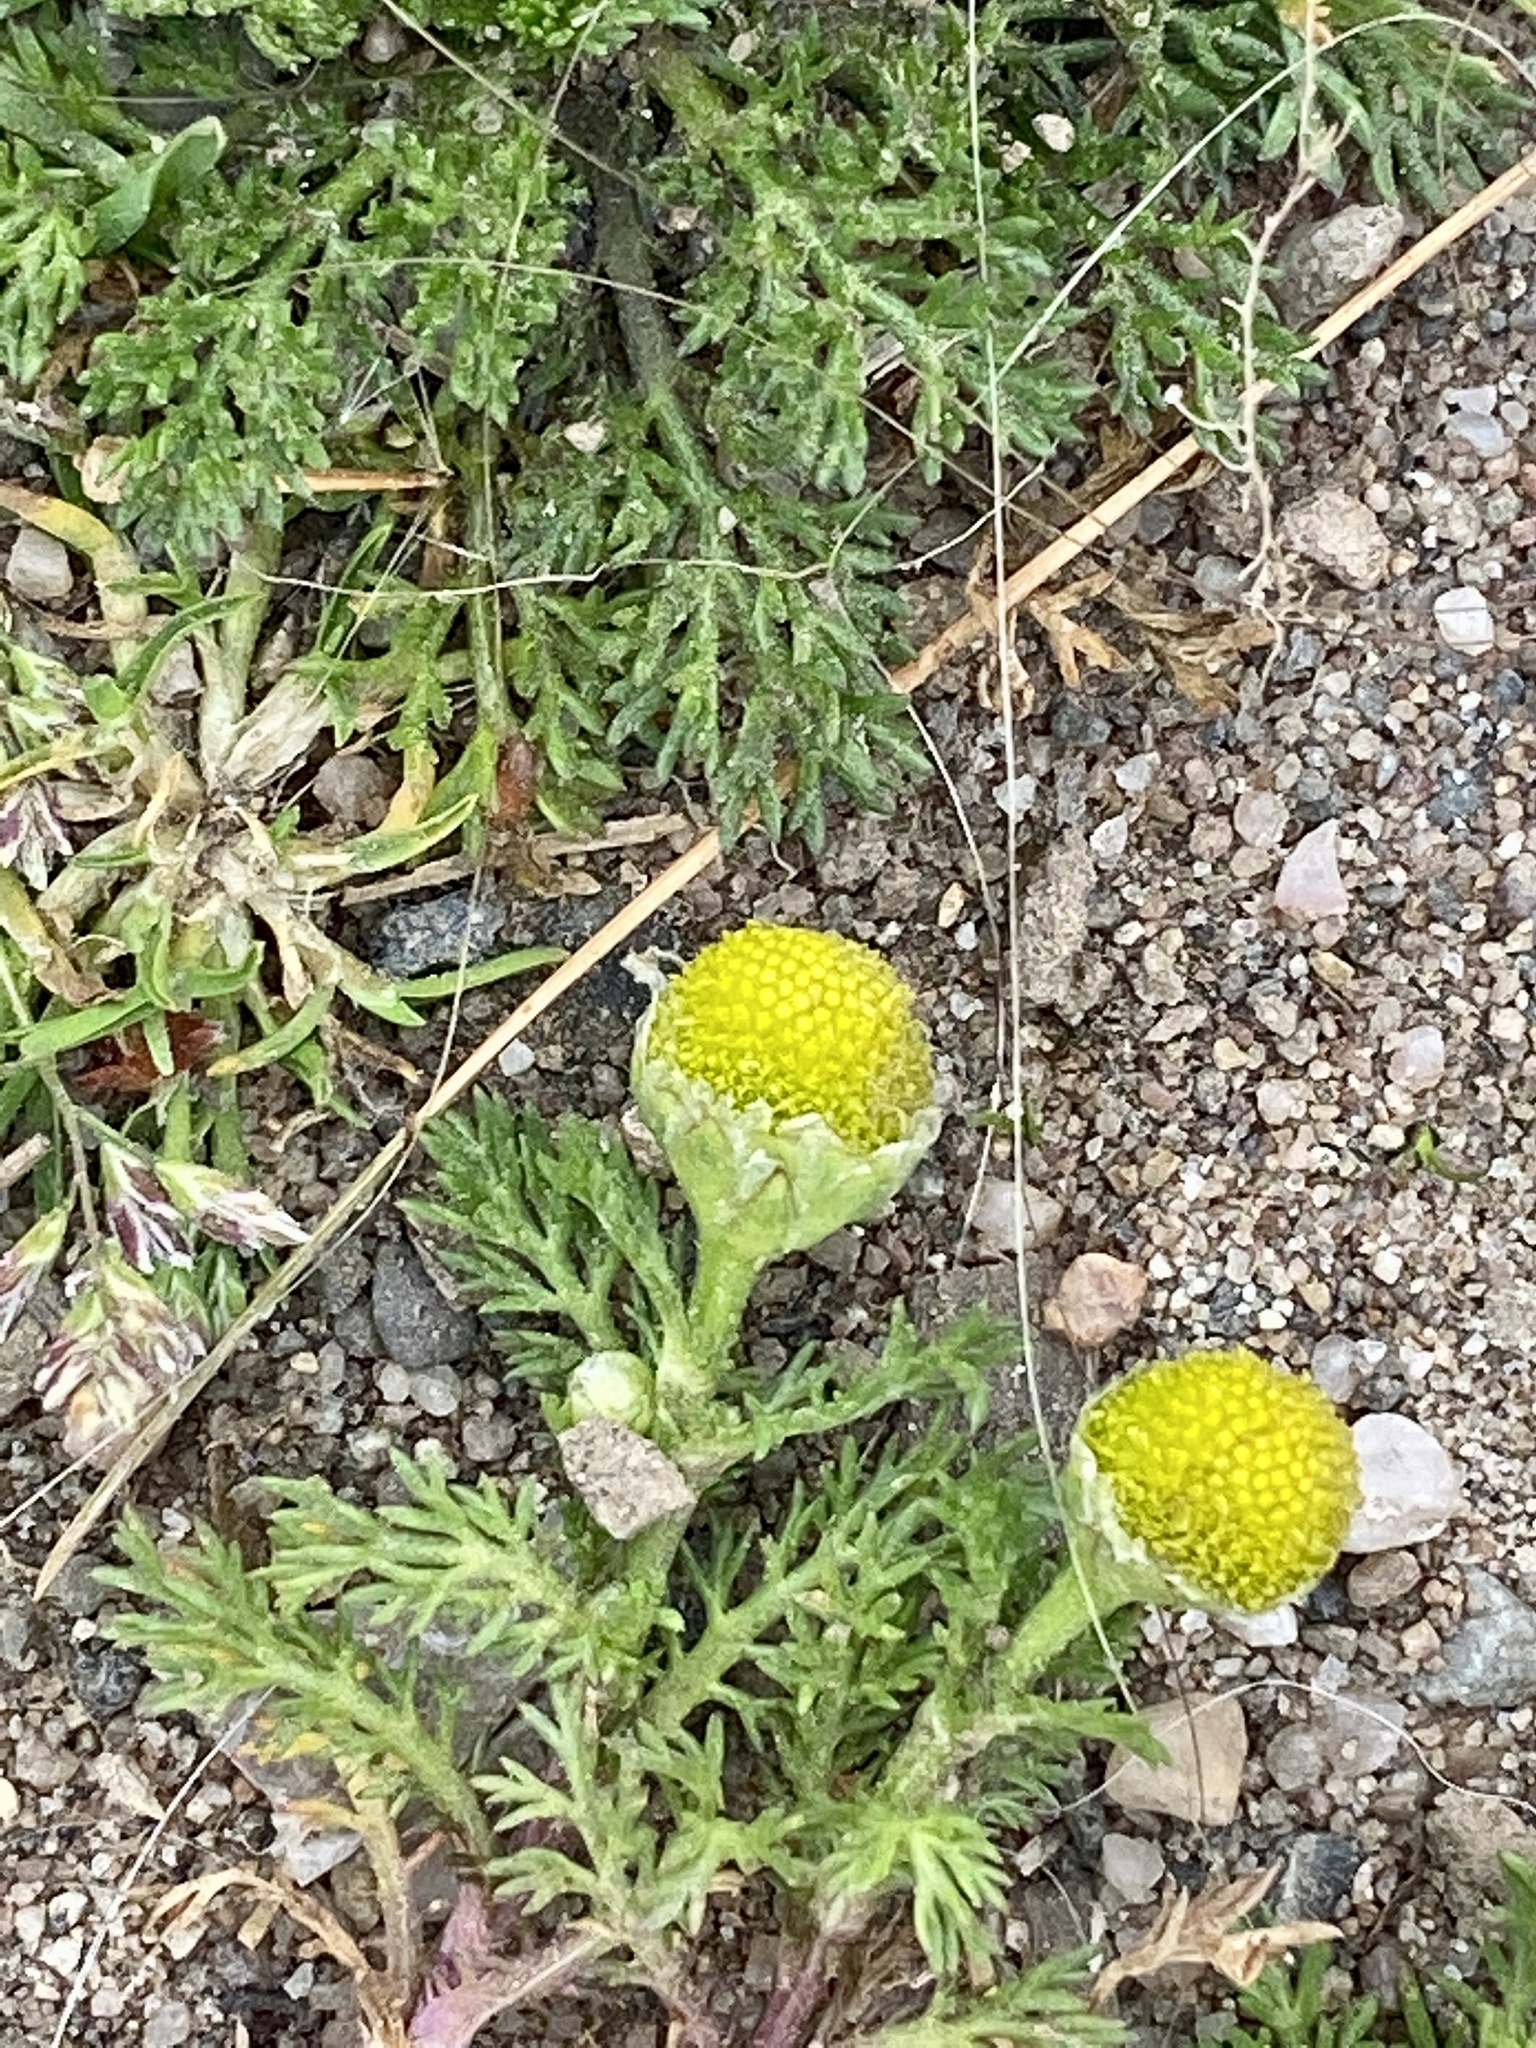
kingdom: Plantae
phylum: Tracheophyta
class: Magnoliopsida
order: Asterales
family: Asteraceae
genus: Matricaria
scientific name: Matricaria discoidea
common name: Disc mayweed
